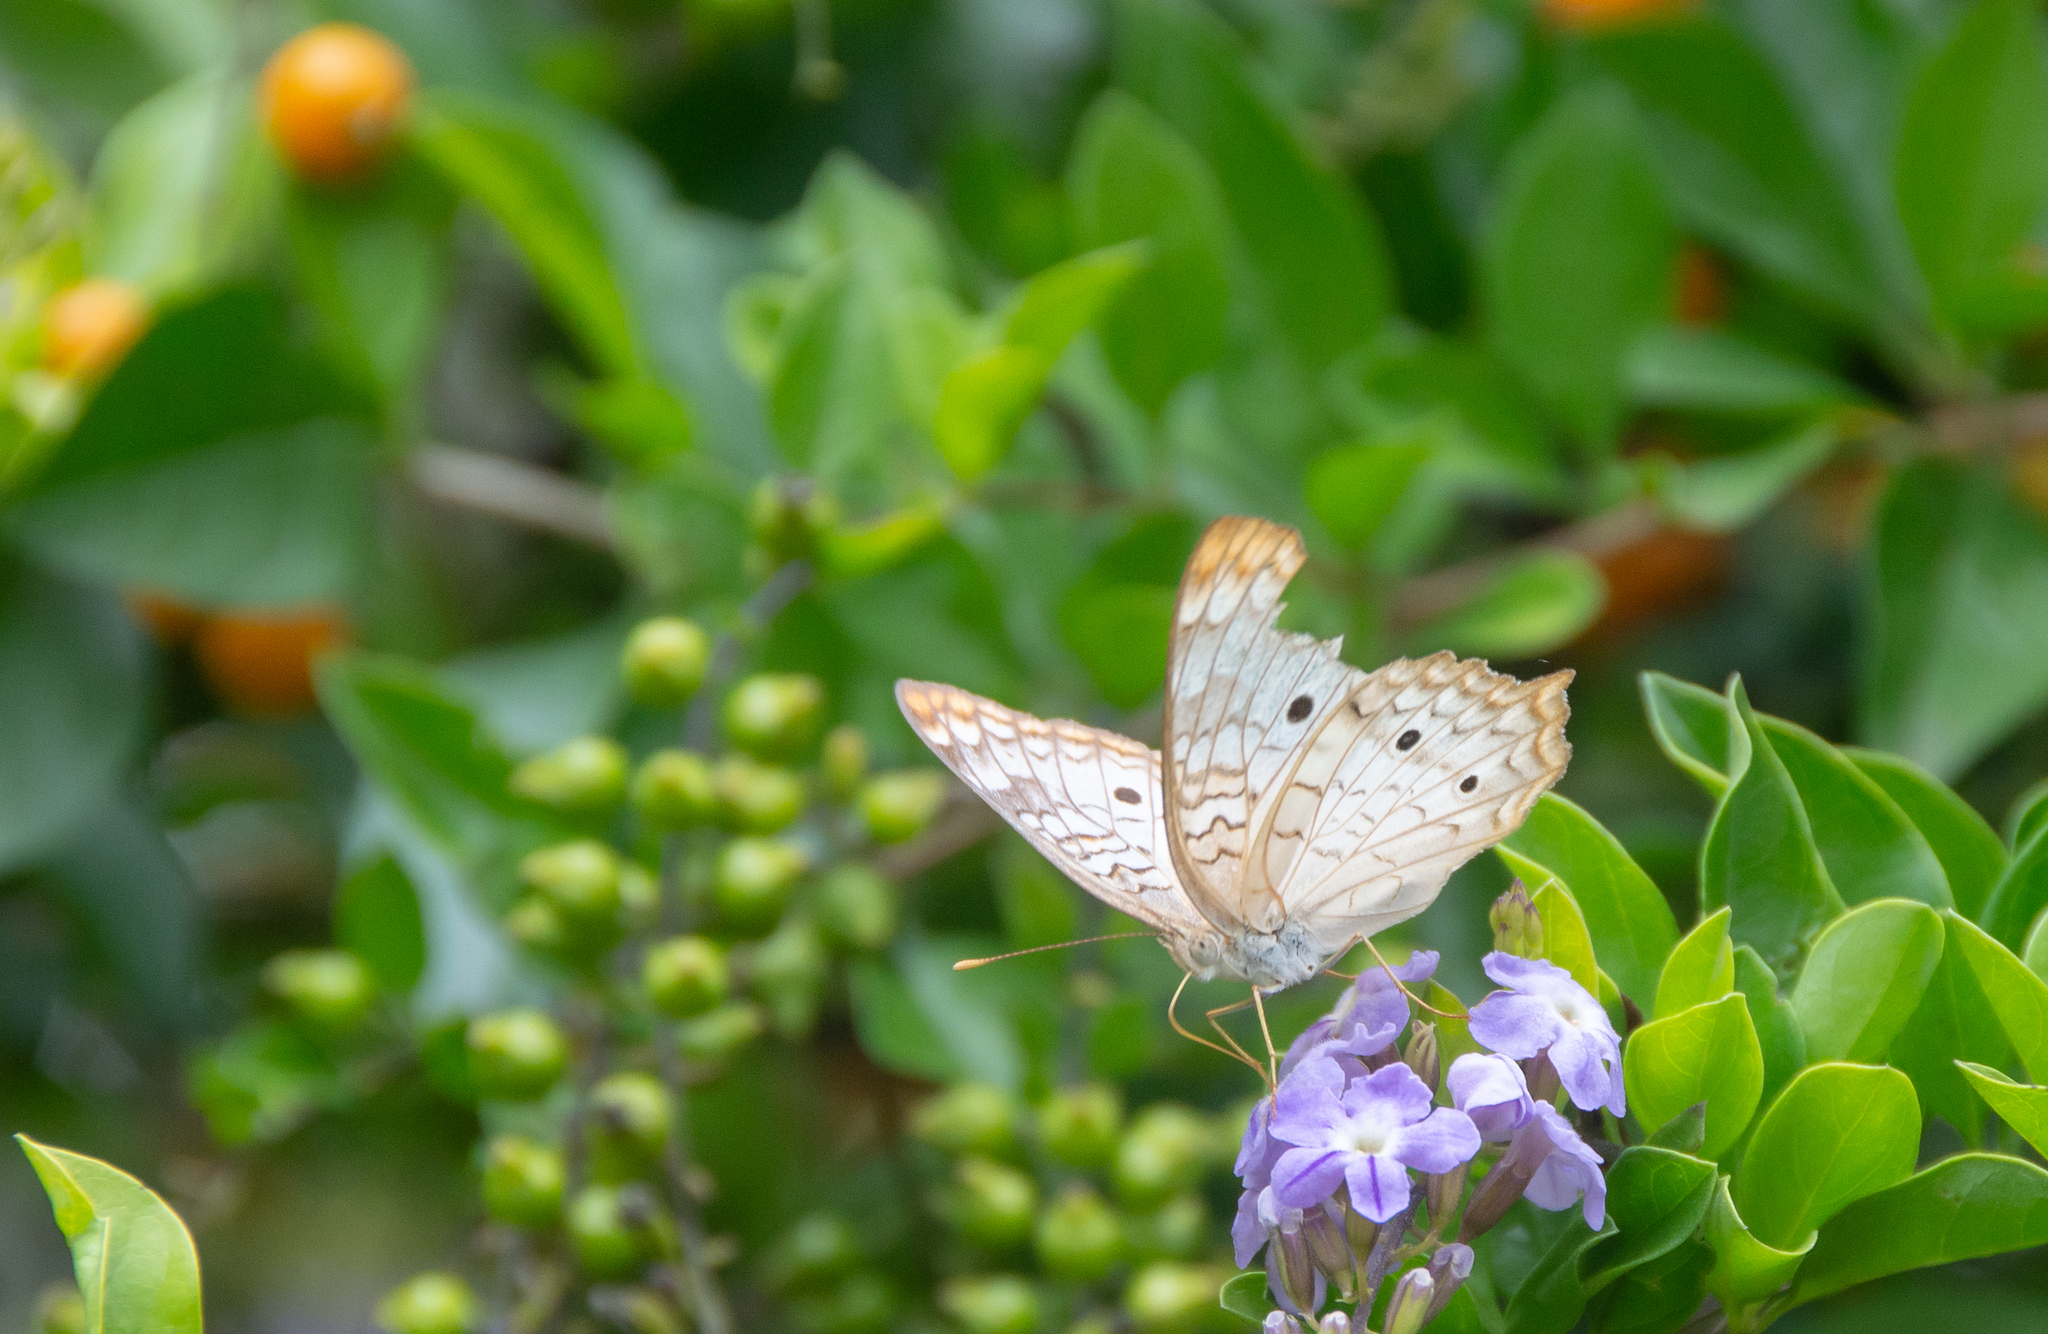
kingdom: Animalia
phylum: Arthropoda
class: Insecta
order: Lepidoptera
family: Nymphalidae
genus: Anartia
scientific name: Anartia jatrophae
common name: White peacock
